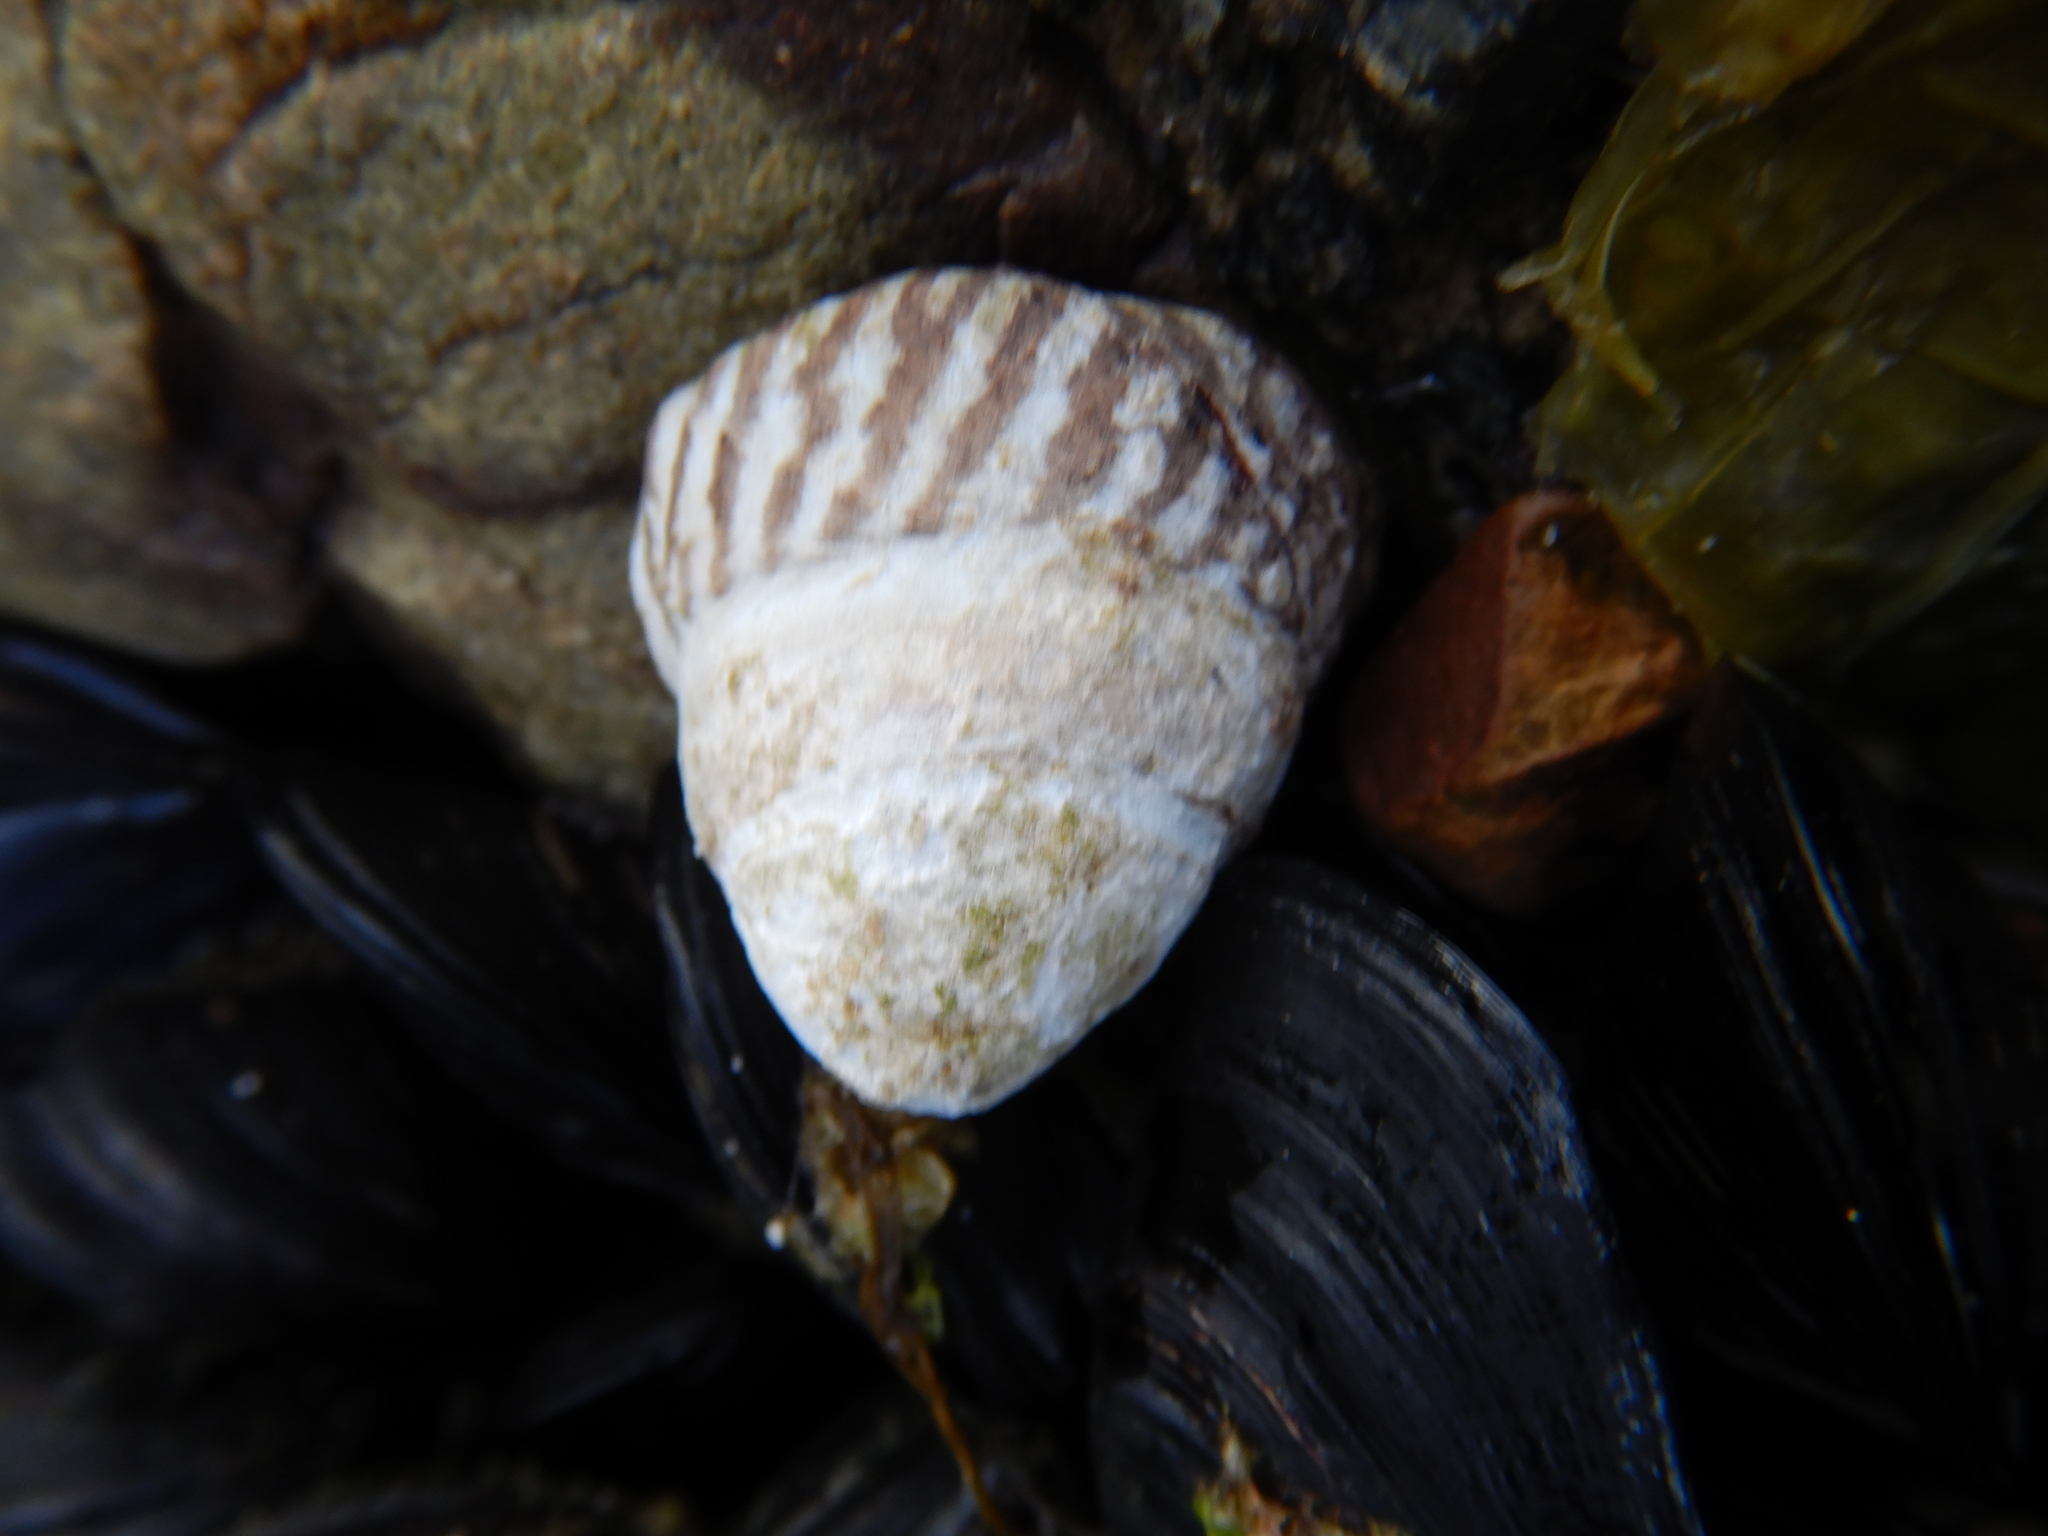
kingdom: Animalia
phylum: Mollusca
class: Gastropoda
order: Littorinimorpha
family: Littorinidae
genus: Bembicium
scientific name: Bembicium nanum
